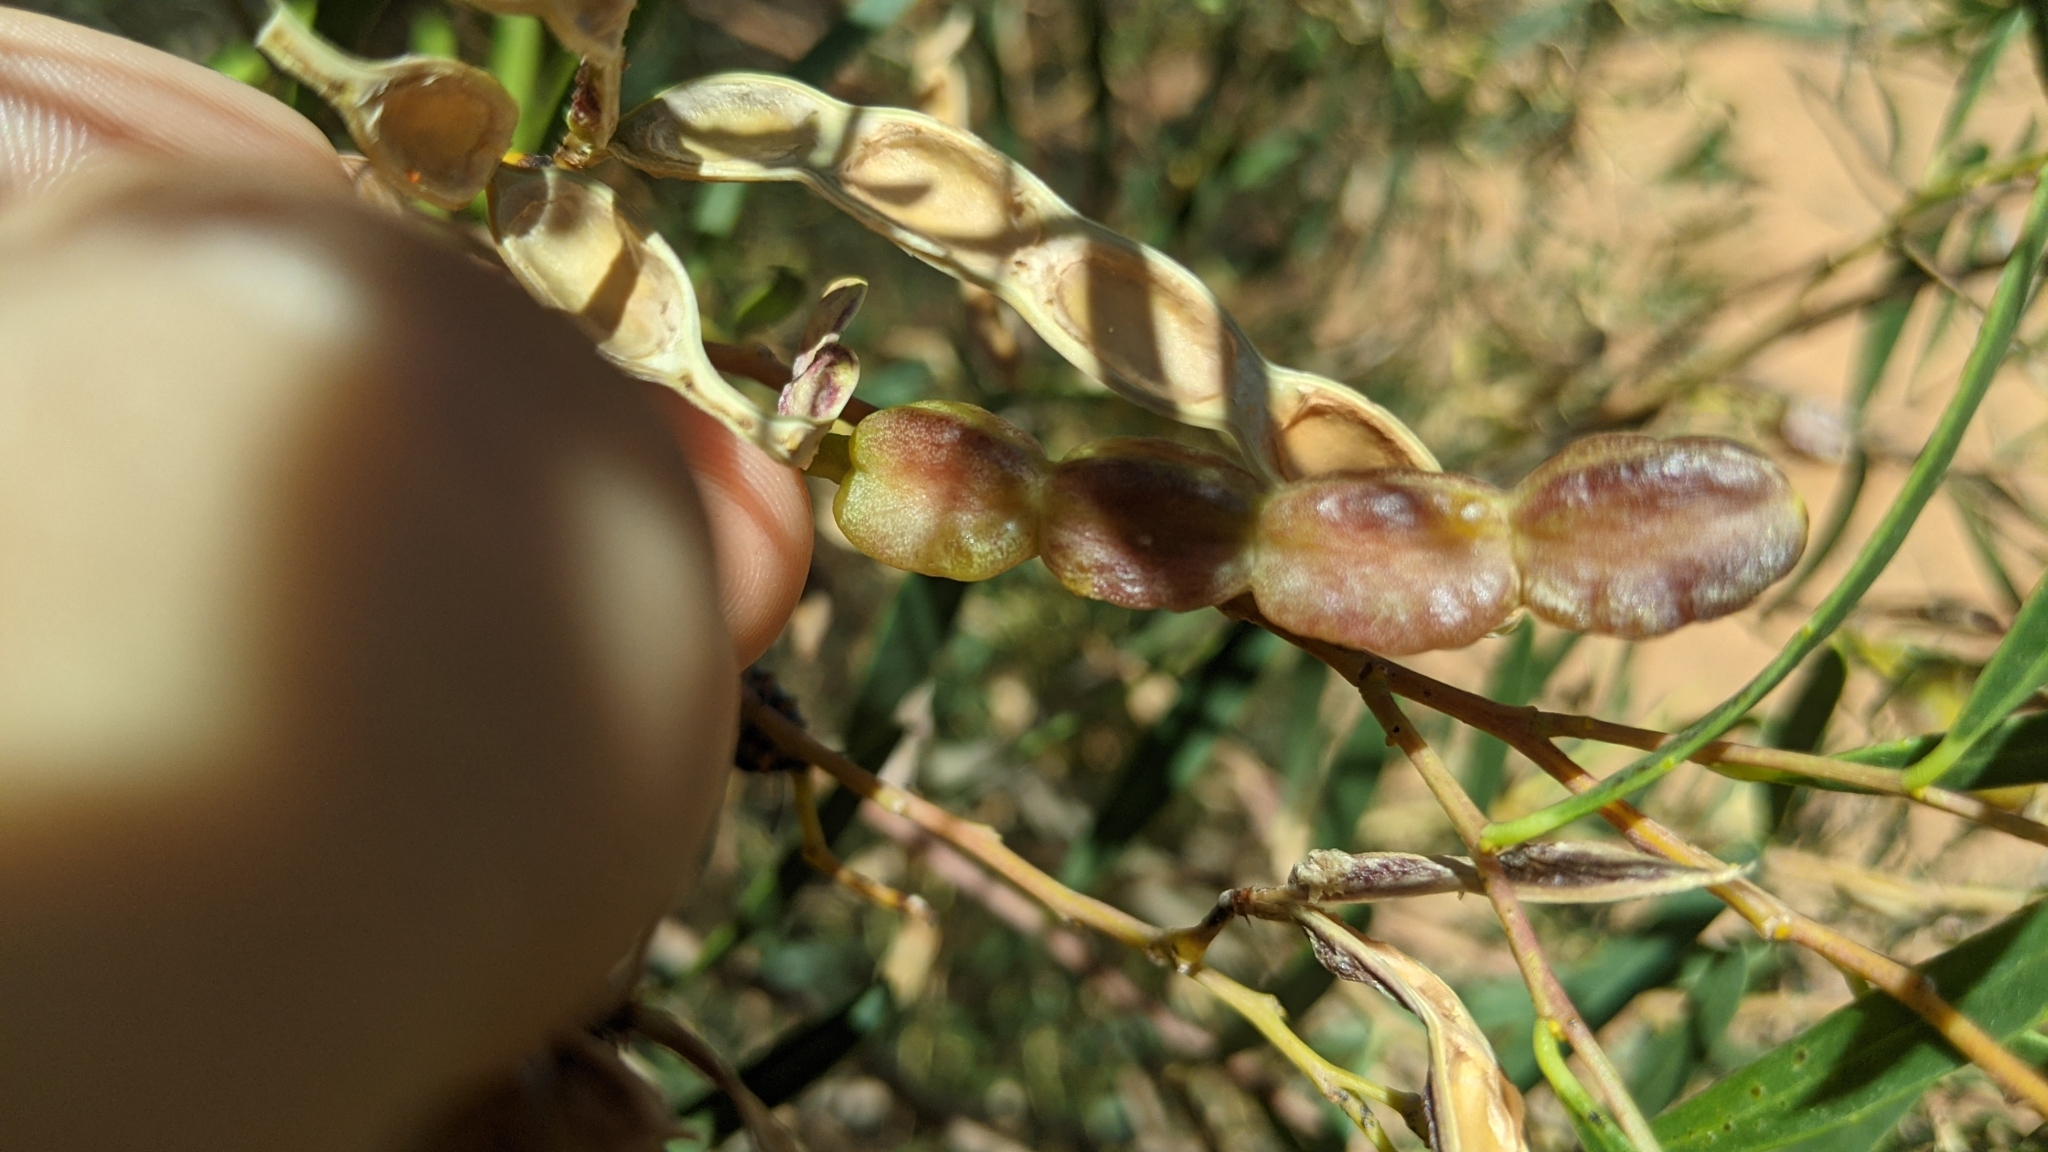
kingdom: Plantae
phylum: Tracheophyta
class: Magnoliopsida
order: Fabales
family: Fabaceae
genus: Acacia
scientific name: Acacia ligulata
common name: Dune wattle
